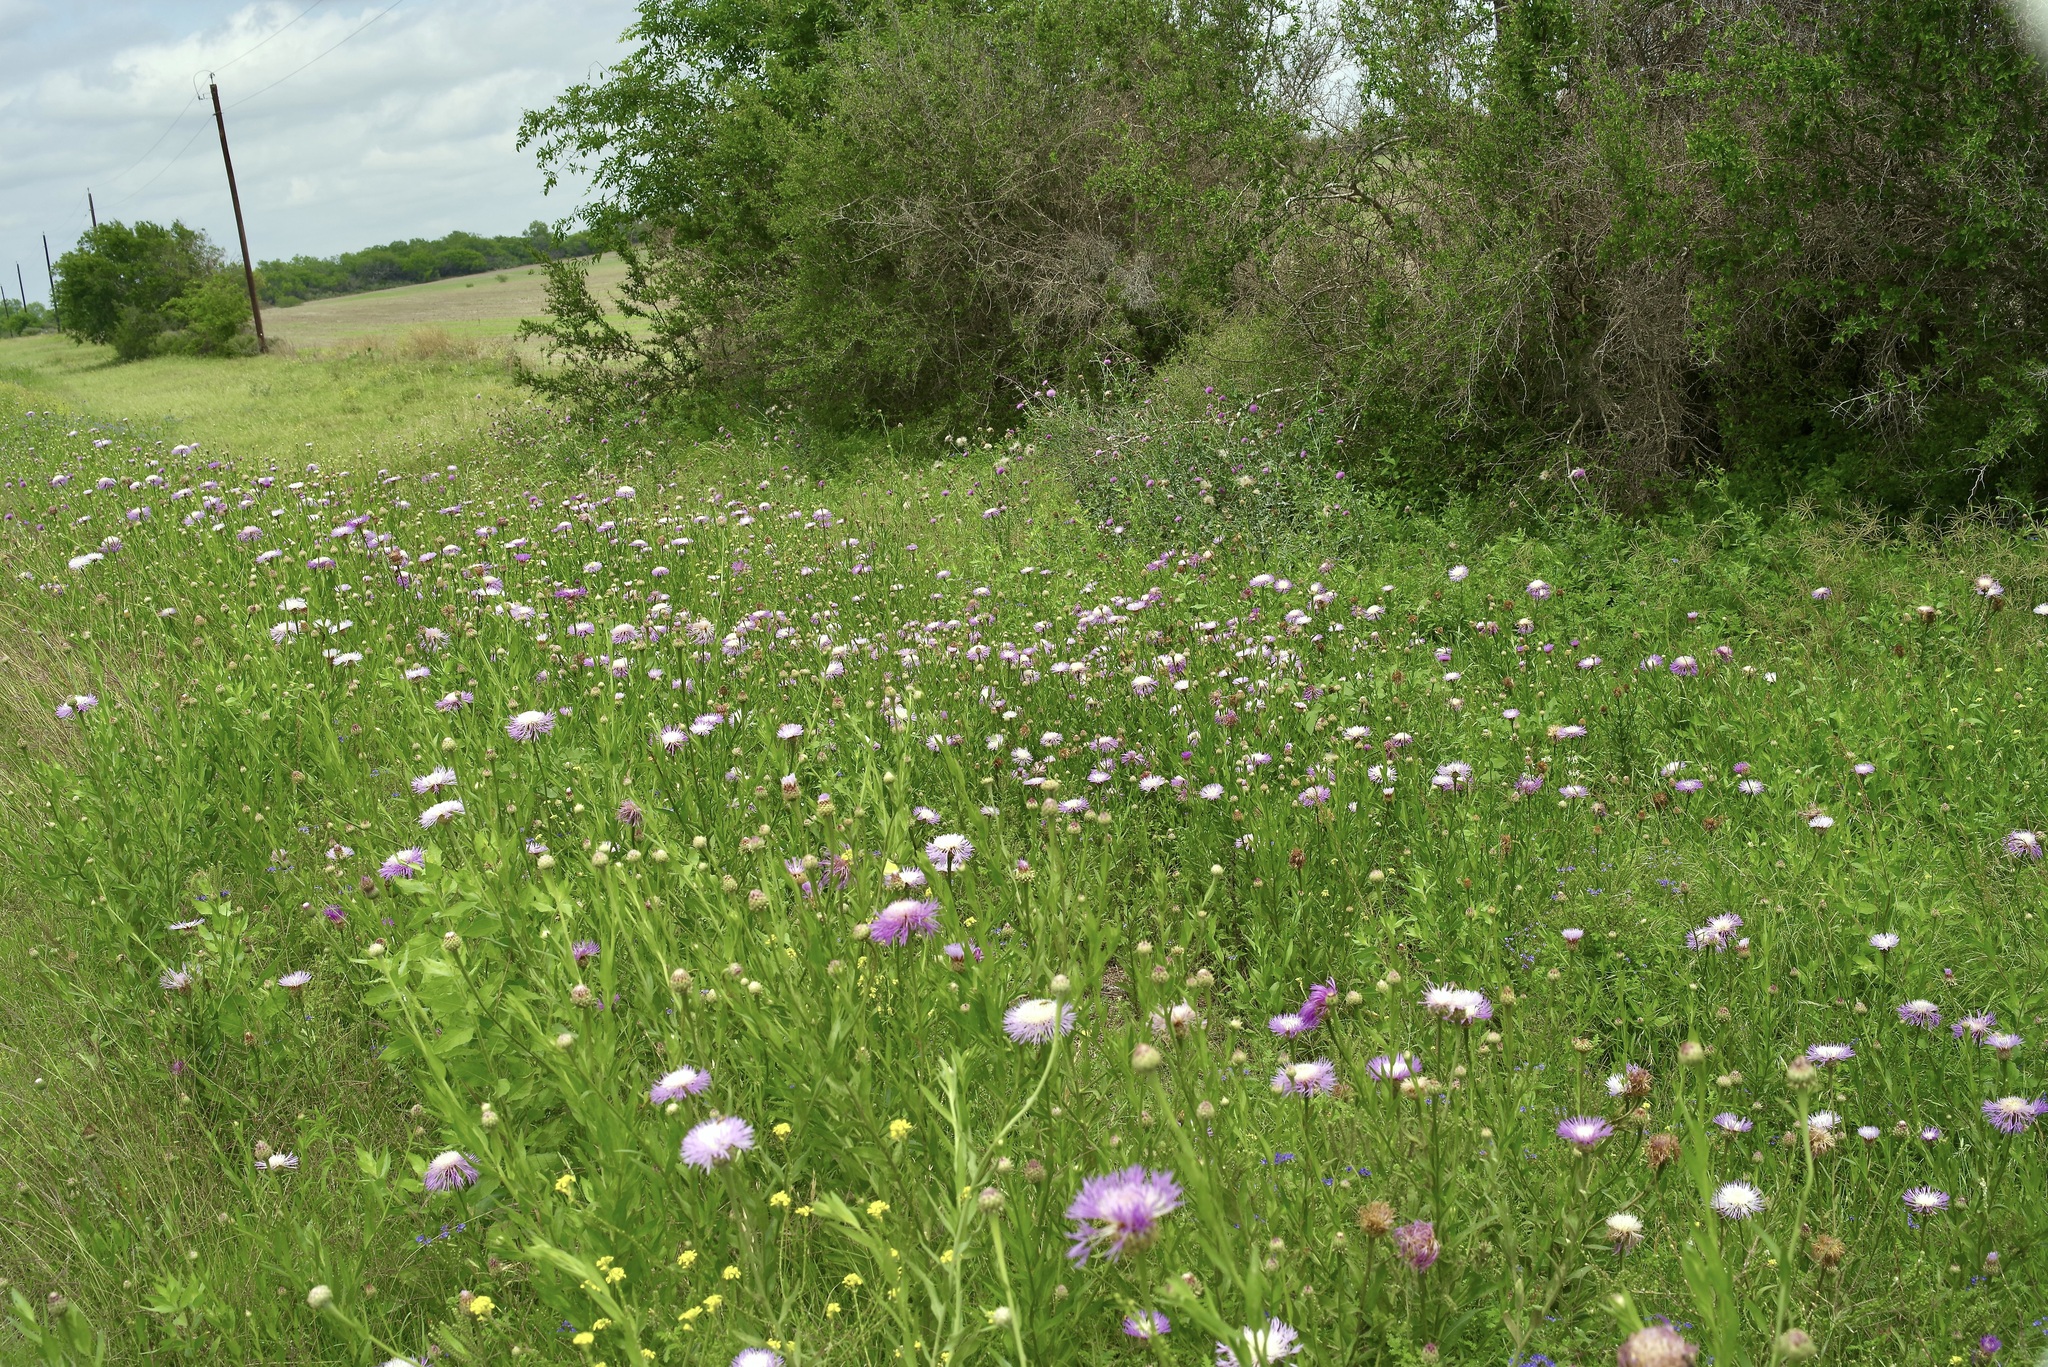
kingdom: Plantae
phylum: Tracheophyta
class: Magnoliopsida
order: Asterales
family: Asteraceae
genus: Plectocephalus
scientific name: Plectocephalus americanus
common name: American basket-flower
